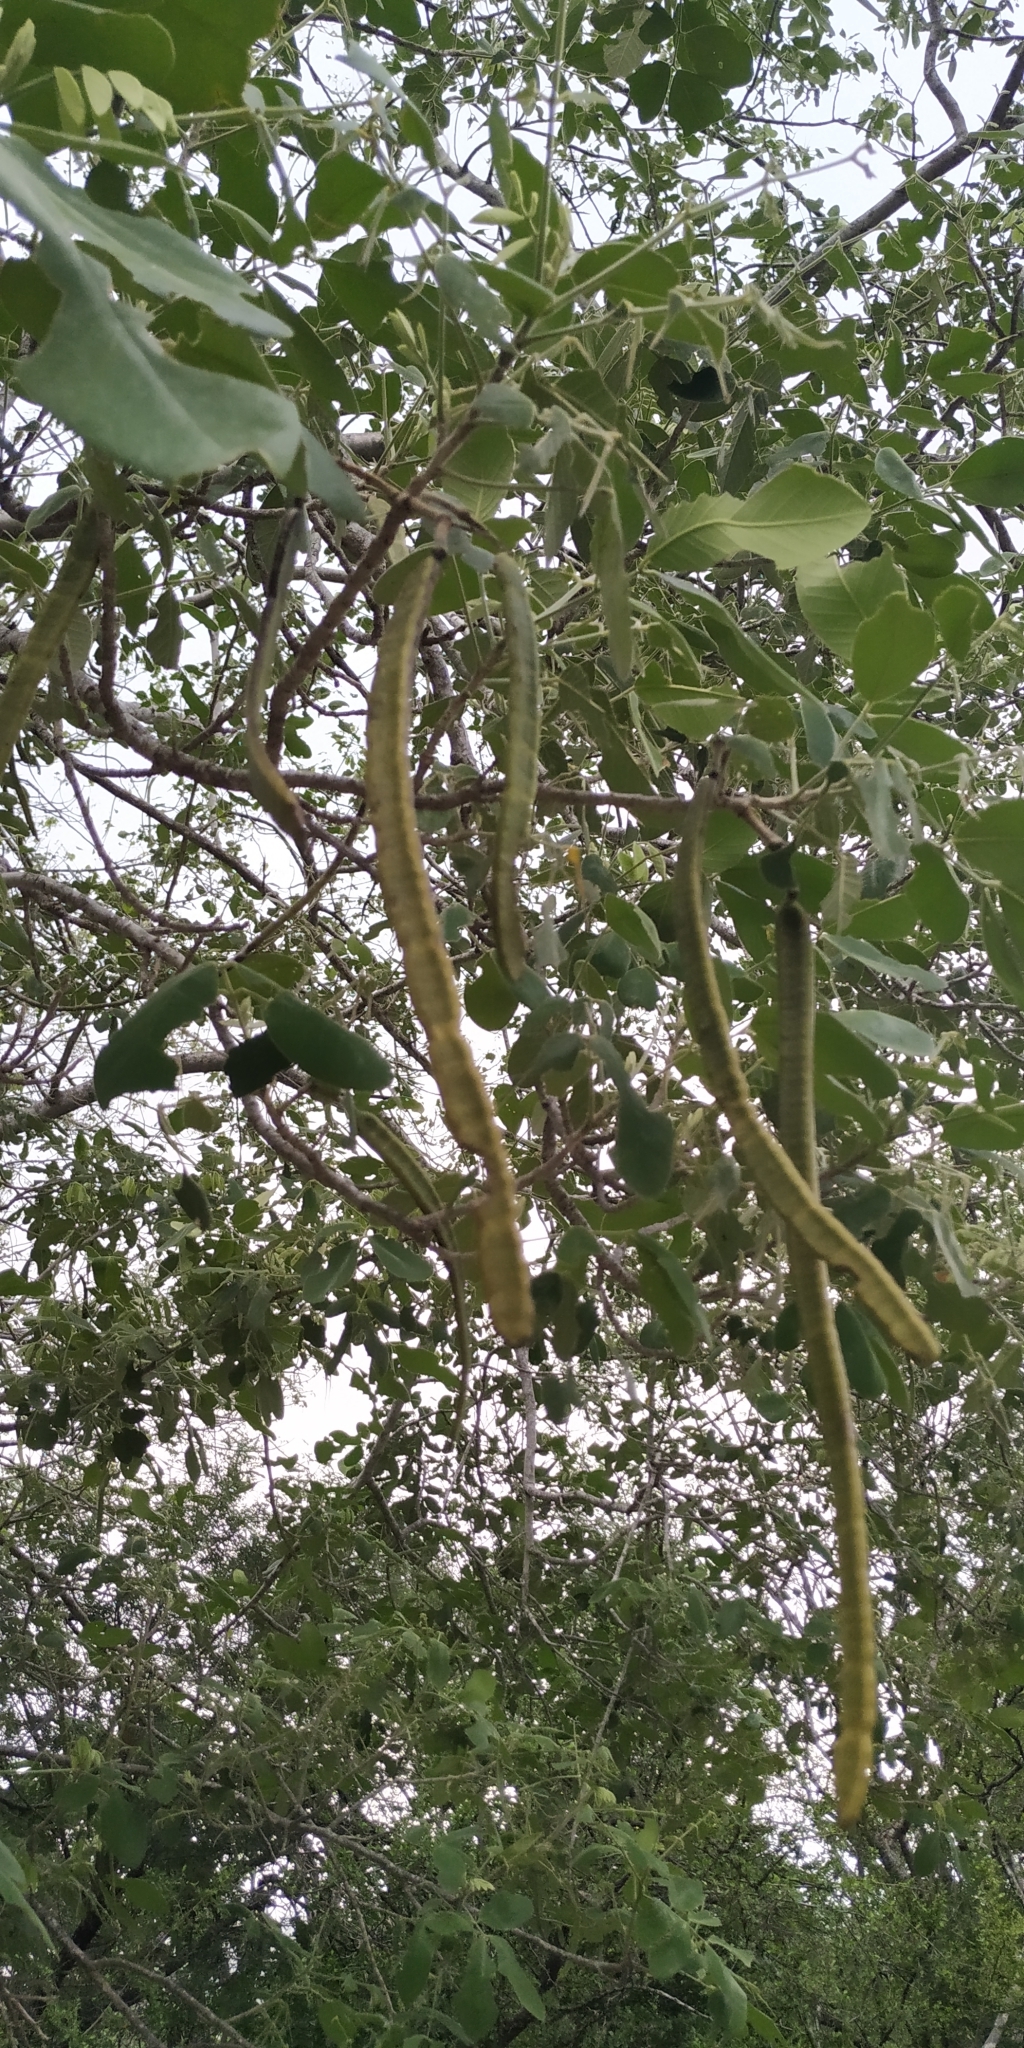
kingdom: Plantae
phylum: Tracheophyta
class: Magnoliopsida
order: Fabales
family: Fabaceae
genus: Senna
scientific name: Senna atomaria
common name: Flor de san jose
